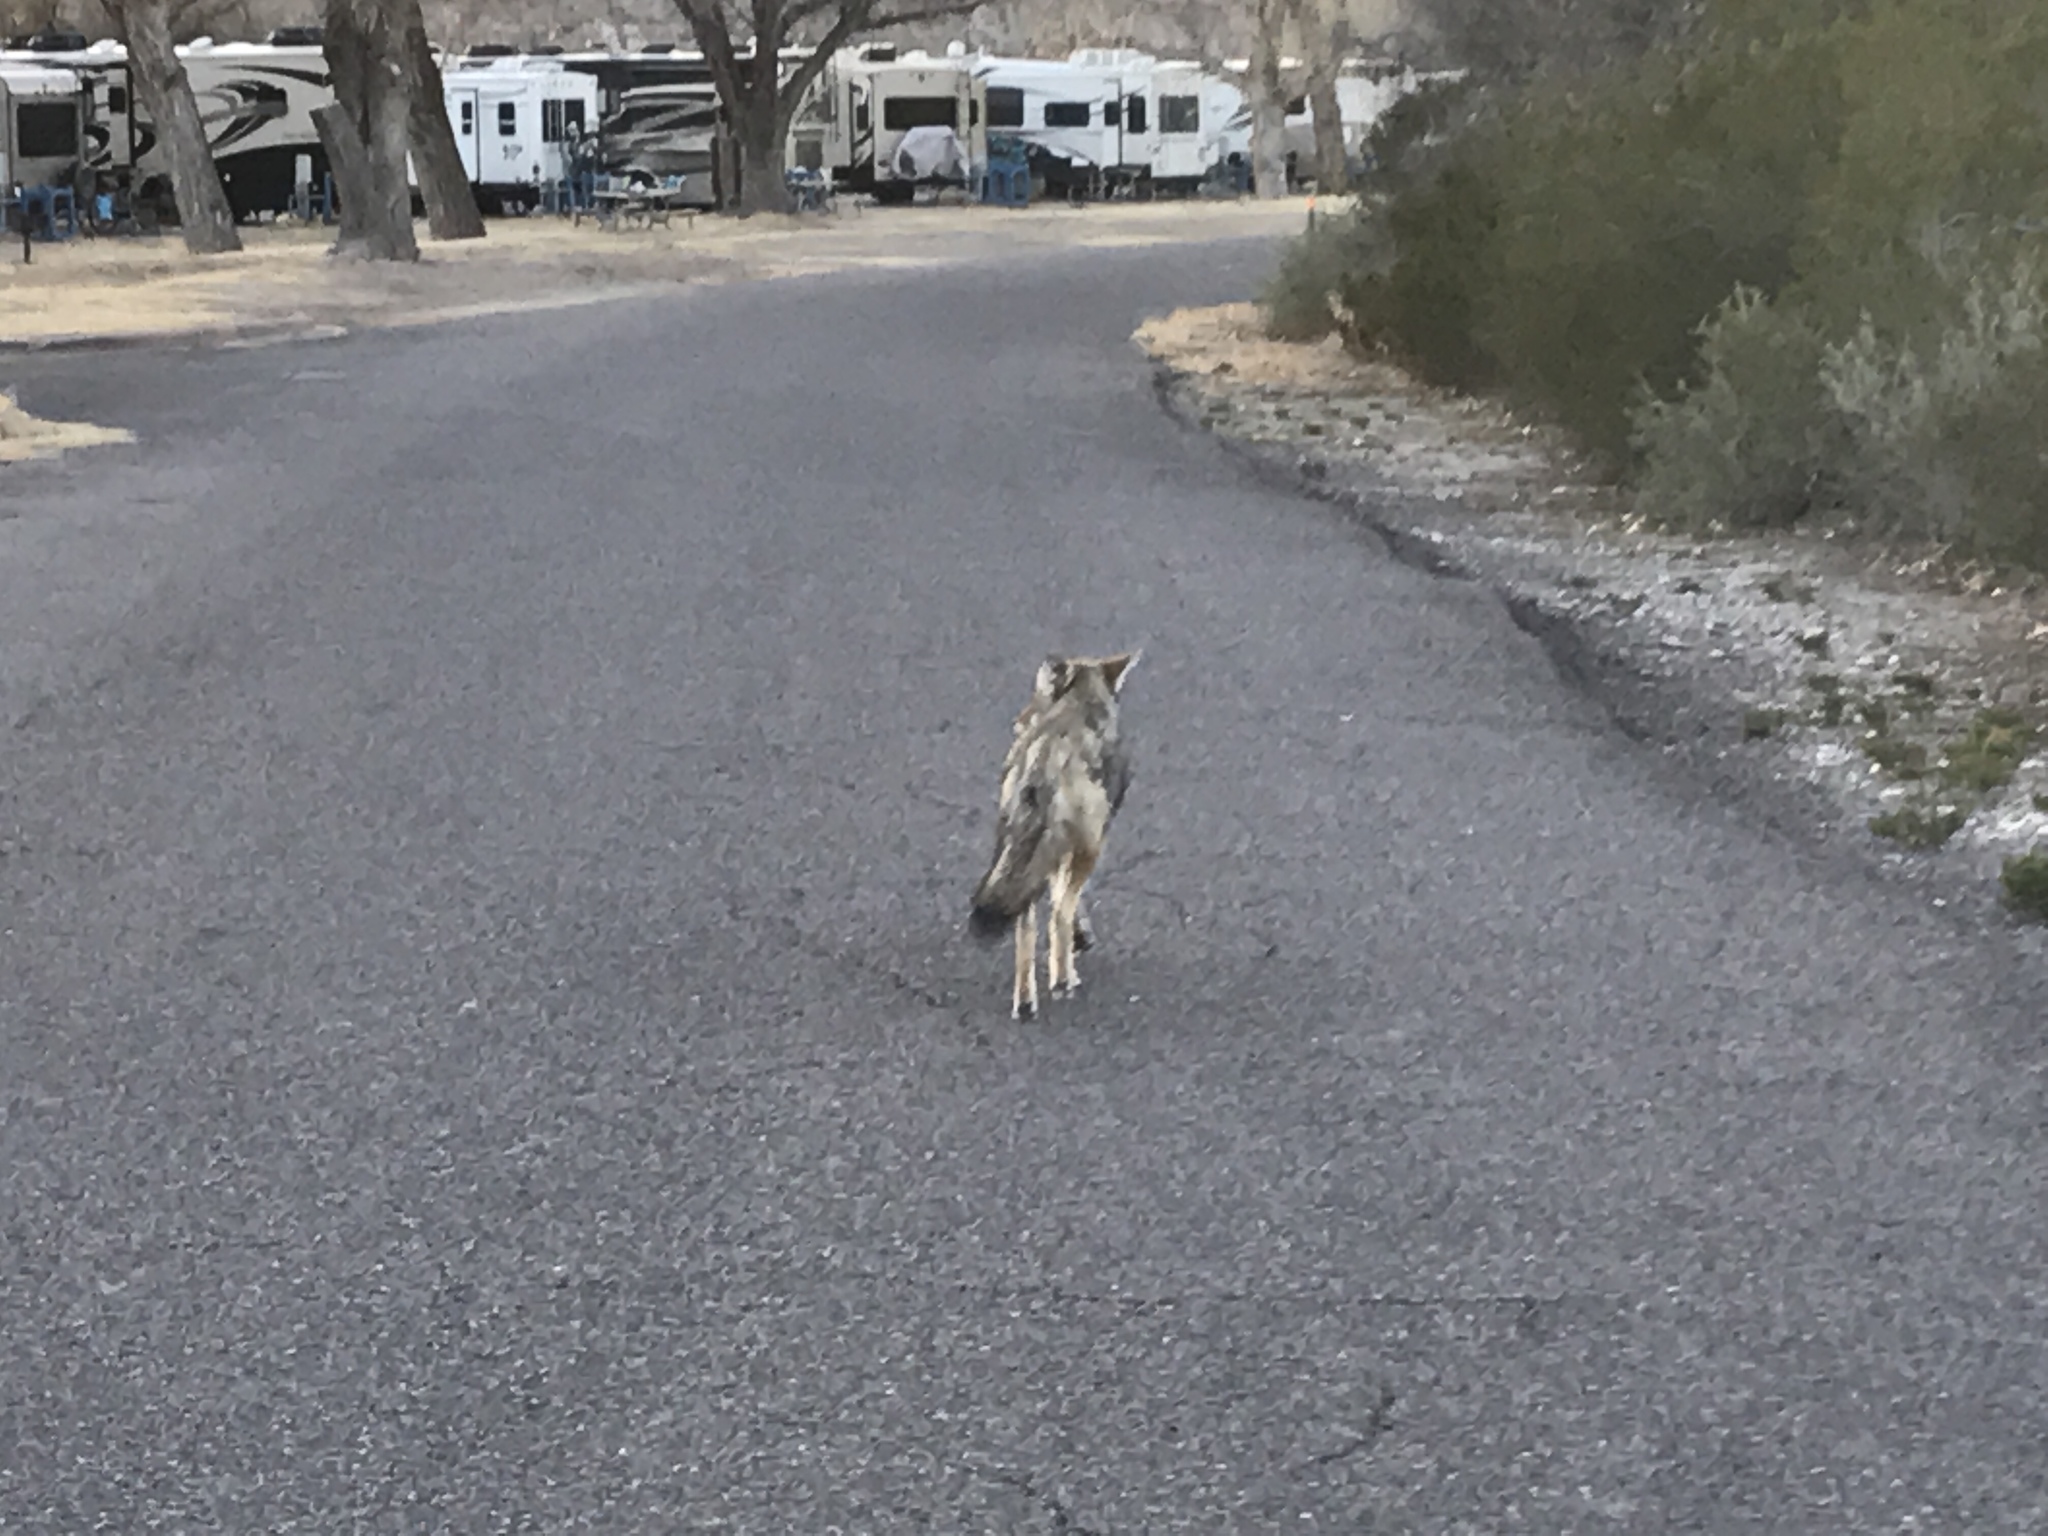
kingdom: Animalia
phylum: Chordata
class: Mammalia
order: Carnivora
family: Canidae
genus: Canis
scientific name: Canis latrans
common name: Coyote
